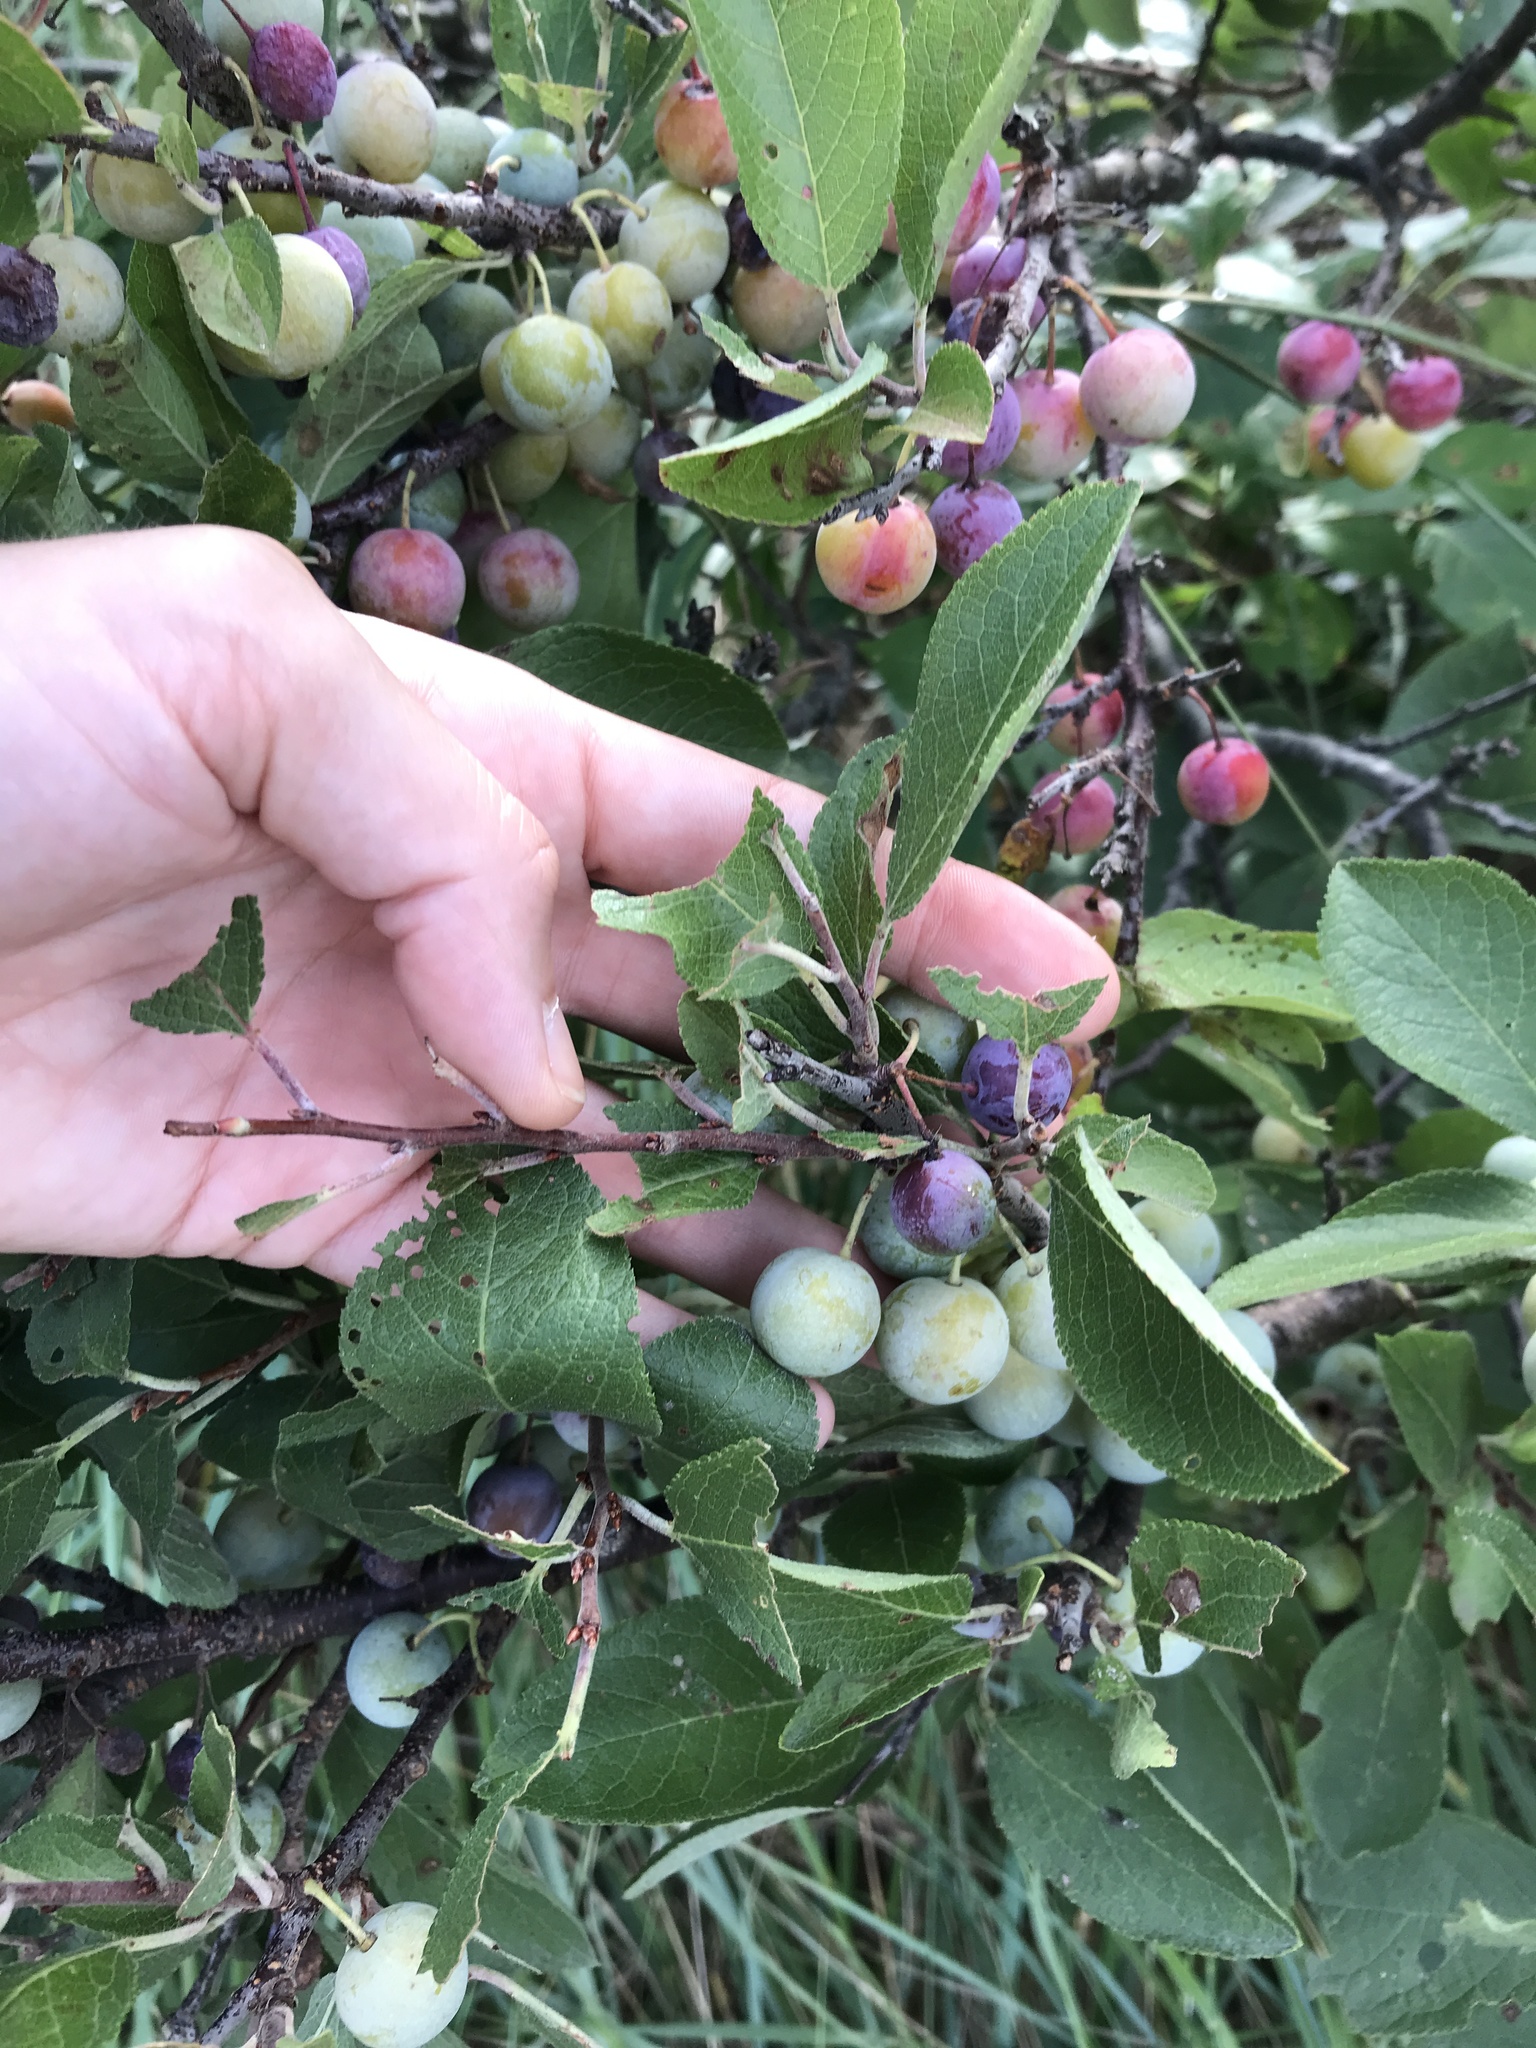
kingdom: Plantae
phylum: Tracheophyta
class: Magnoliopsida
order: Rosales
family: Rosaceae
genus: Prunus
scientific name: Prunus maritima
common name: Beach plum
